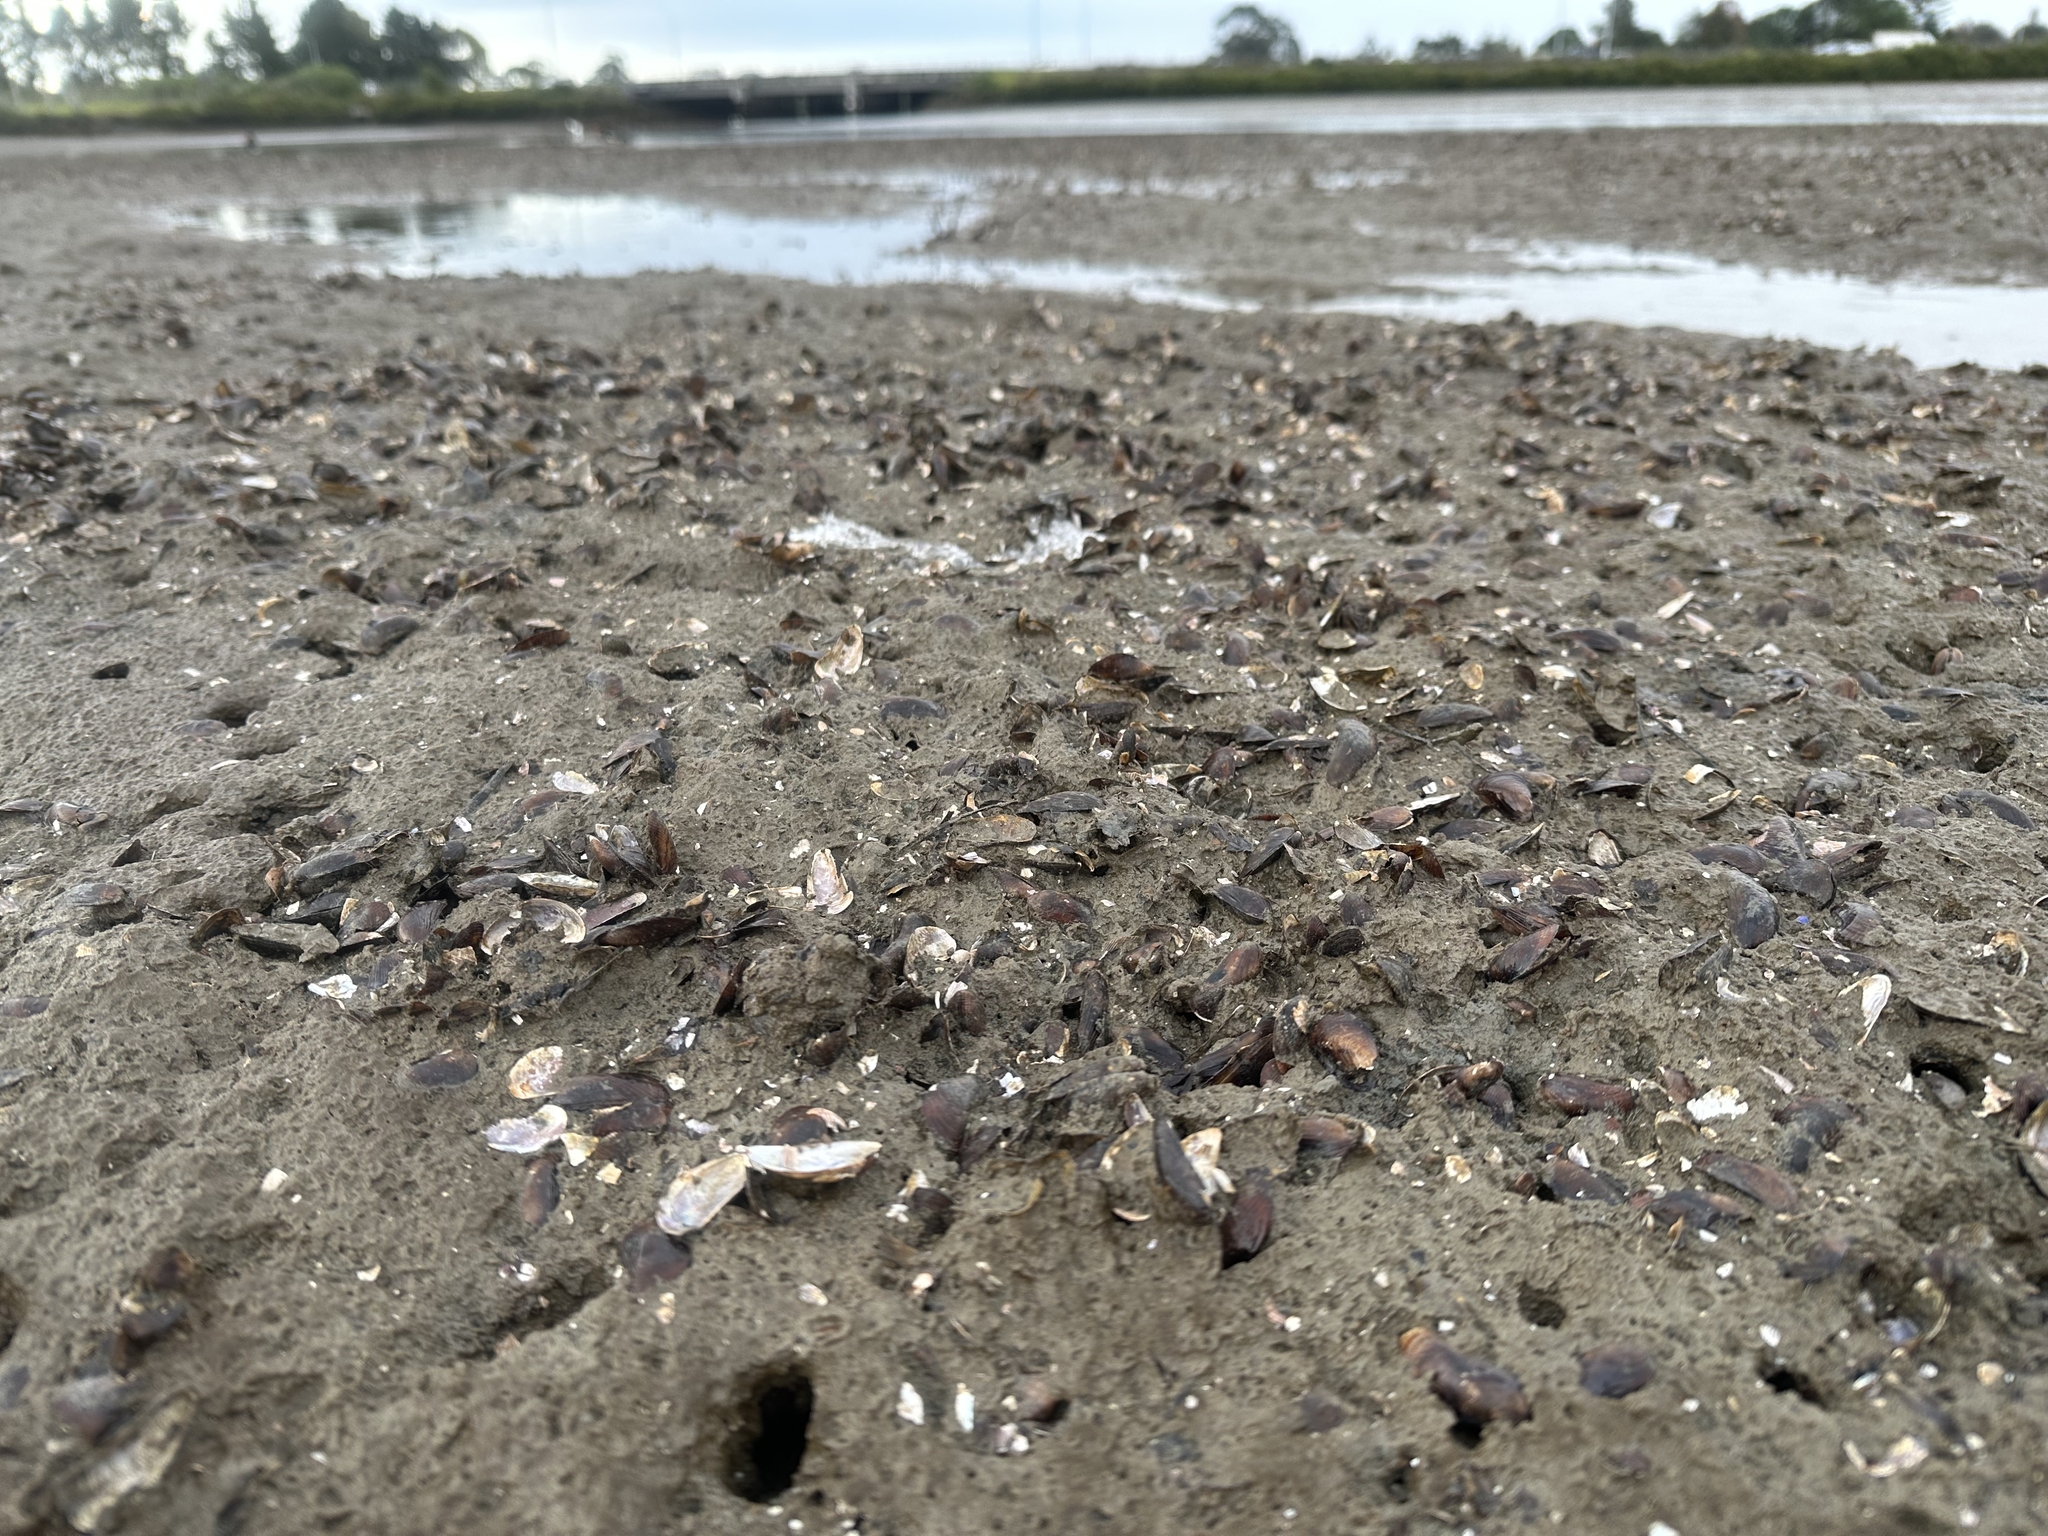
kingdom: Animalia
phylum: Mollusca
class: Bivalvia
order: Mytilida
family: Mytilidae
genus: Xenostrobus
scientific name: Xenostrobus securis
